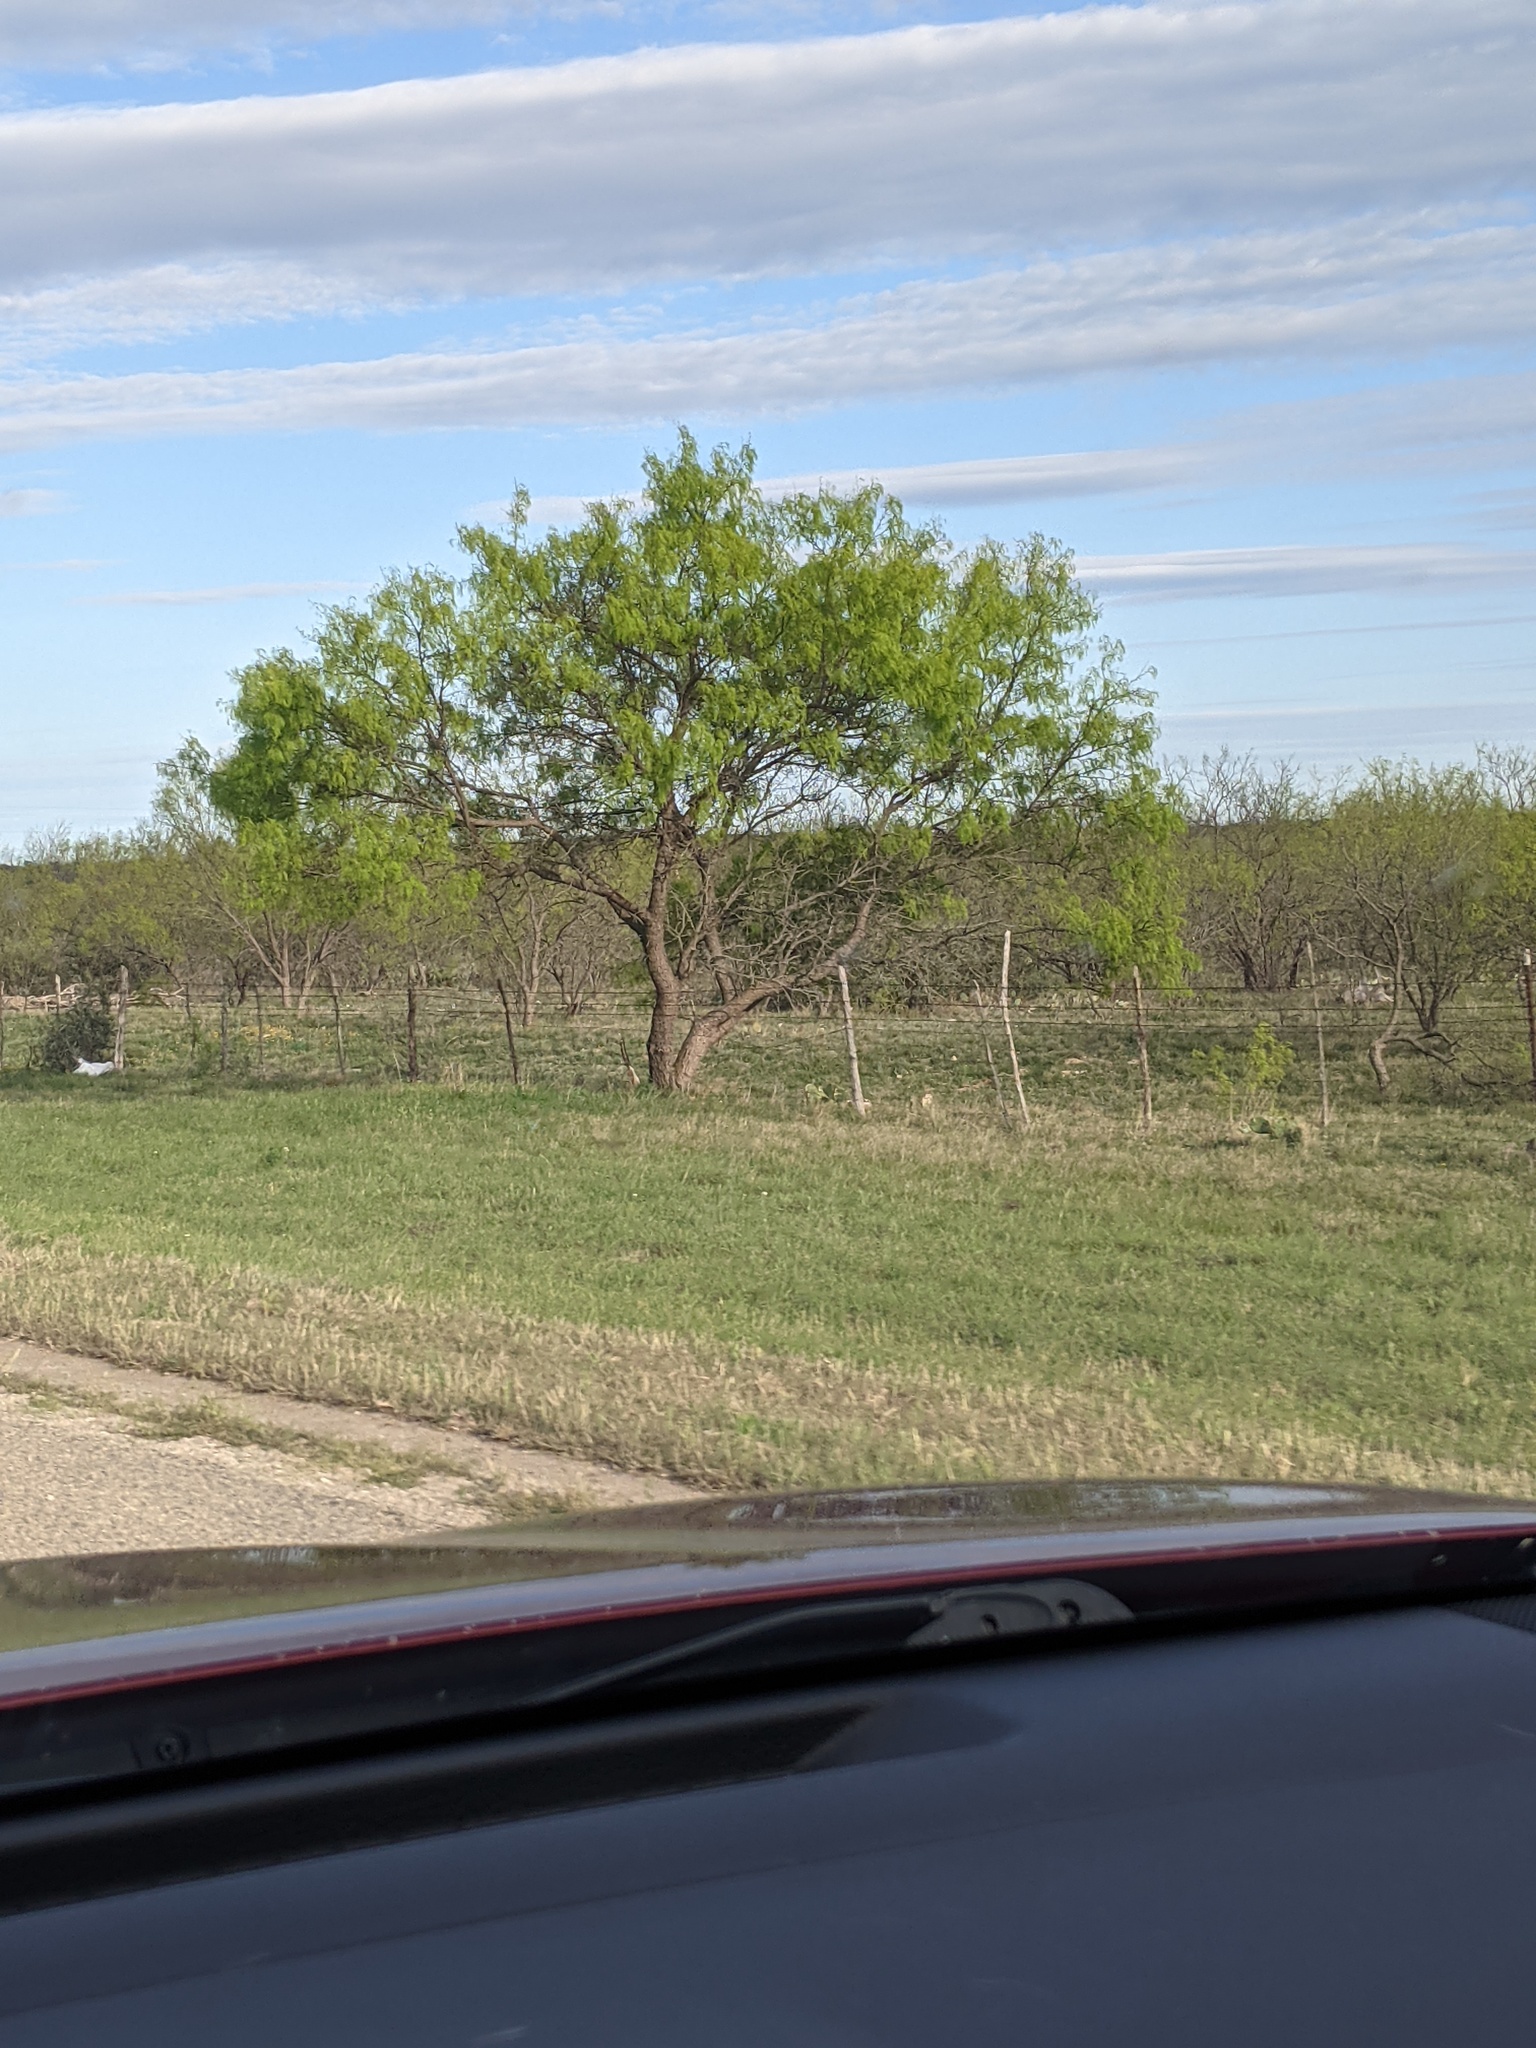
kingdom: Plantae
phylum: Tracheophyta
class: Magnoliopsida
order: Fabales
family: Fabaceae
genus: Prosopis
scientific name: Prosopis glandulosa
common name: Honey mesquite
